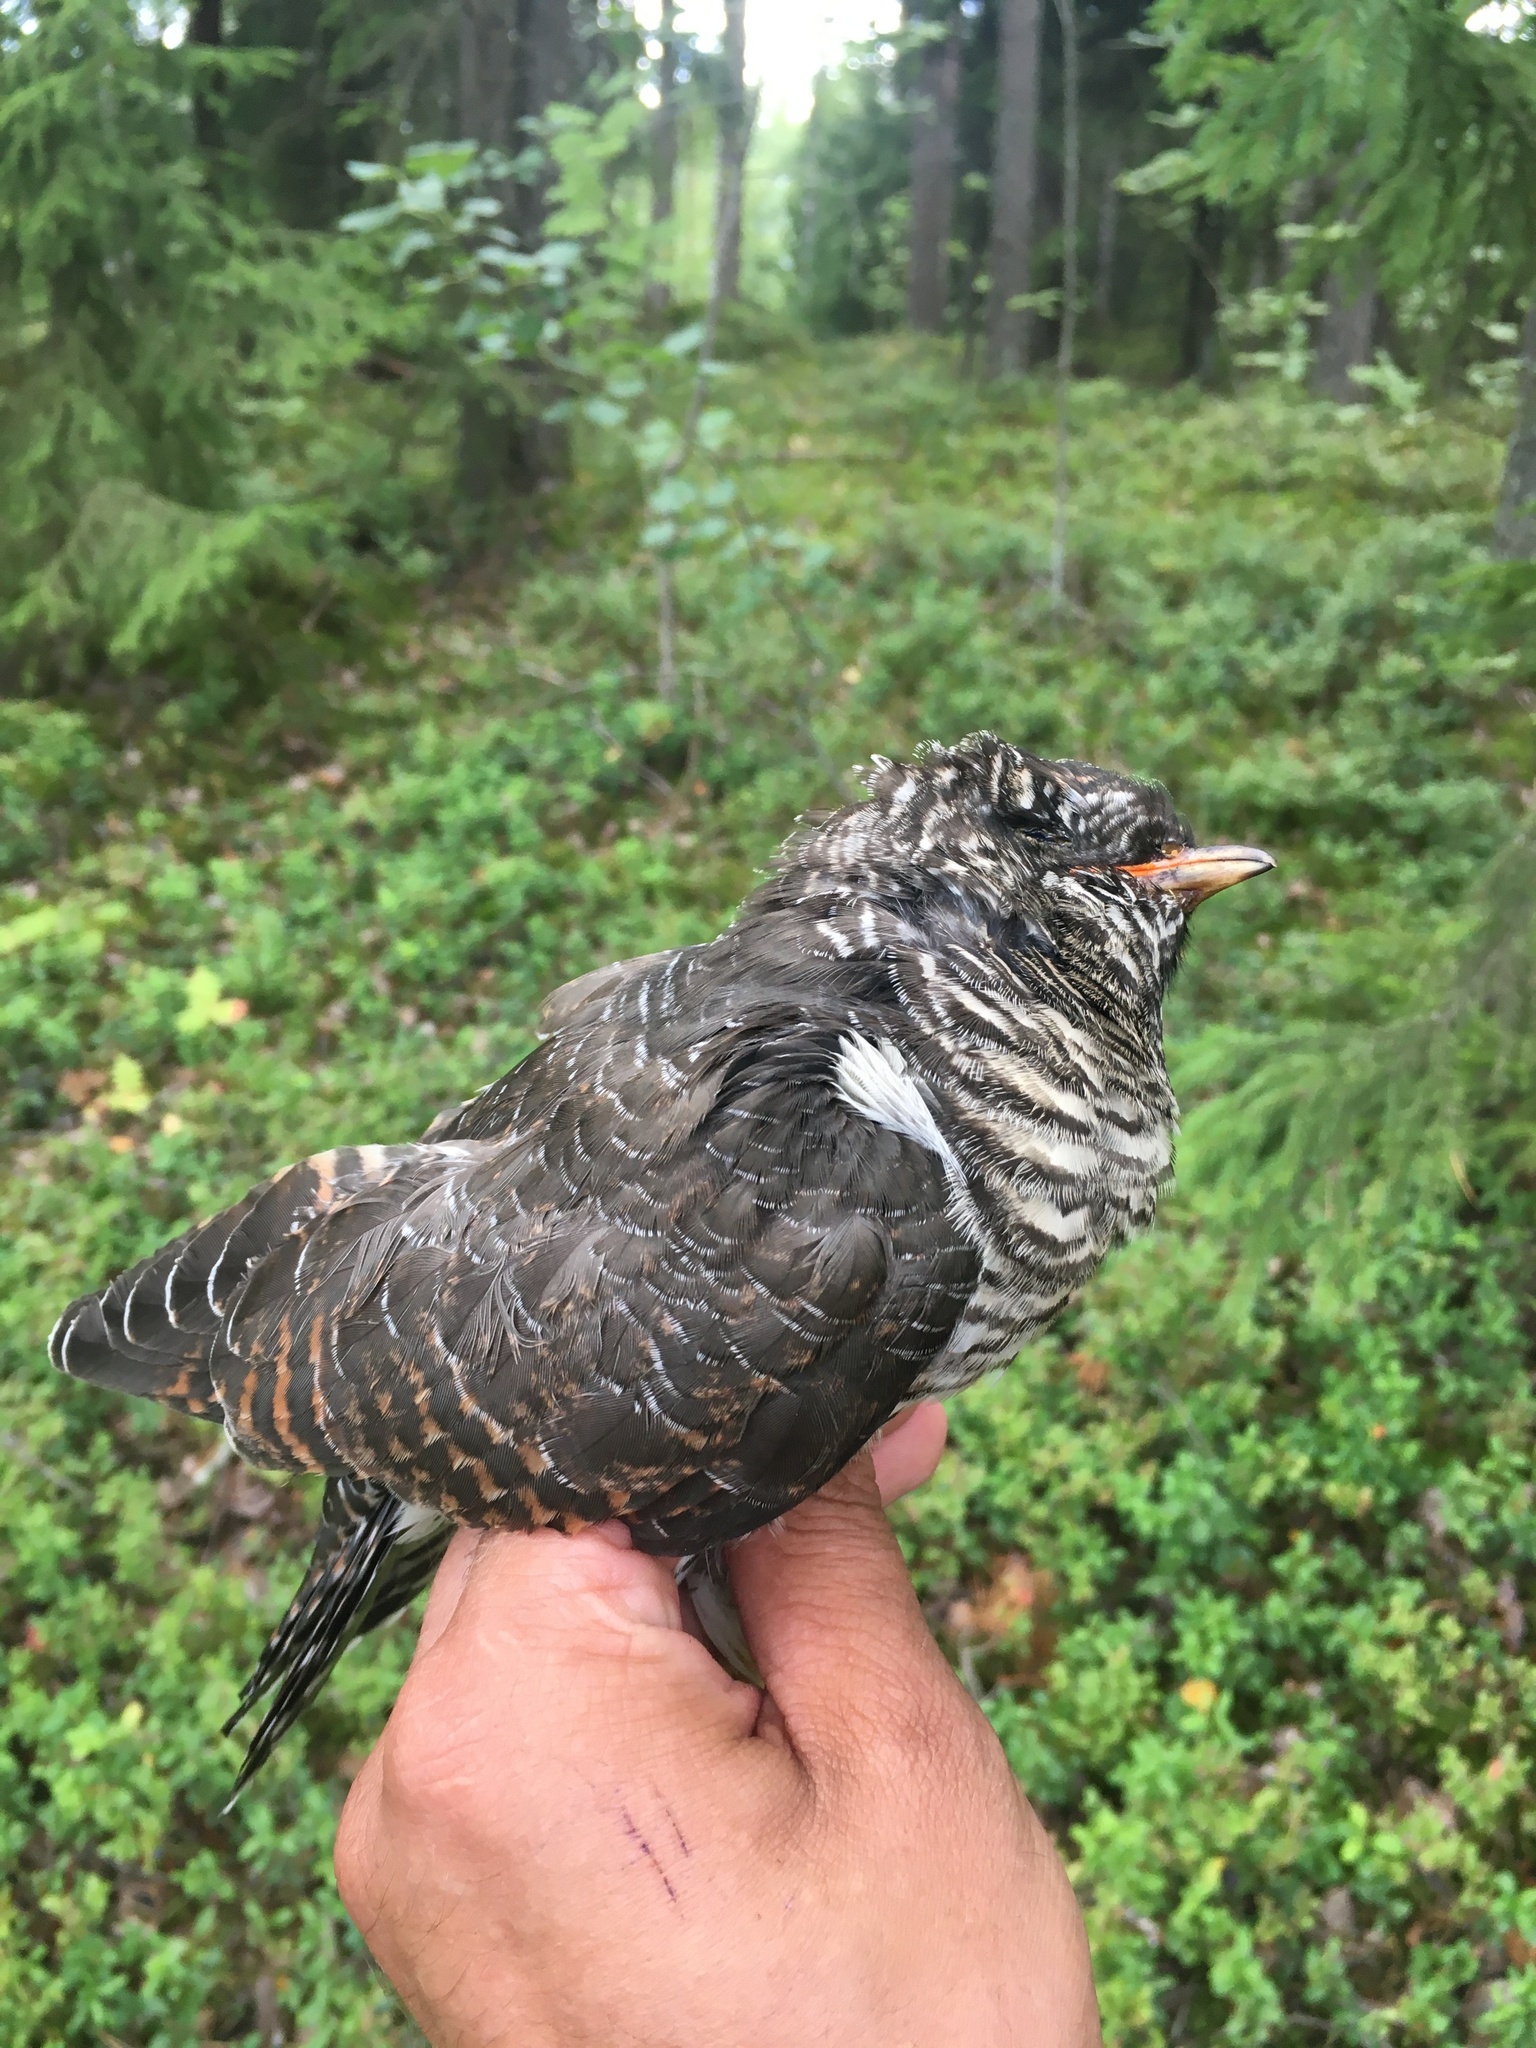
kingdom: Animalia
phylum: Chordata
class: Aves
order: Cuculiformes
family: Cuculidae
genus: Cuculus
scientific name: Cuculus canorus
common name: Common cuckoo
